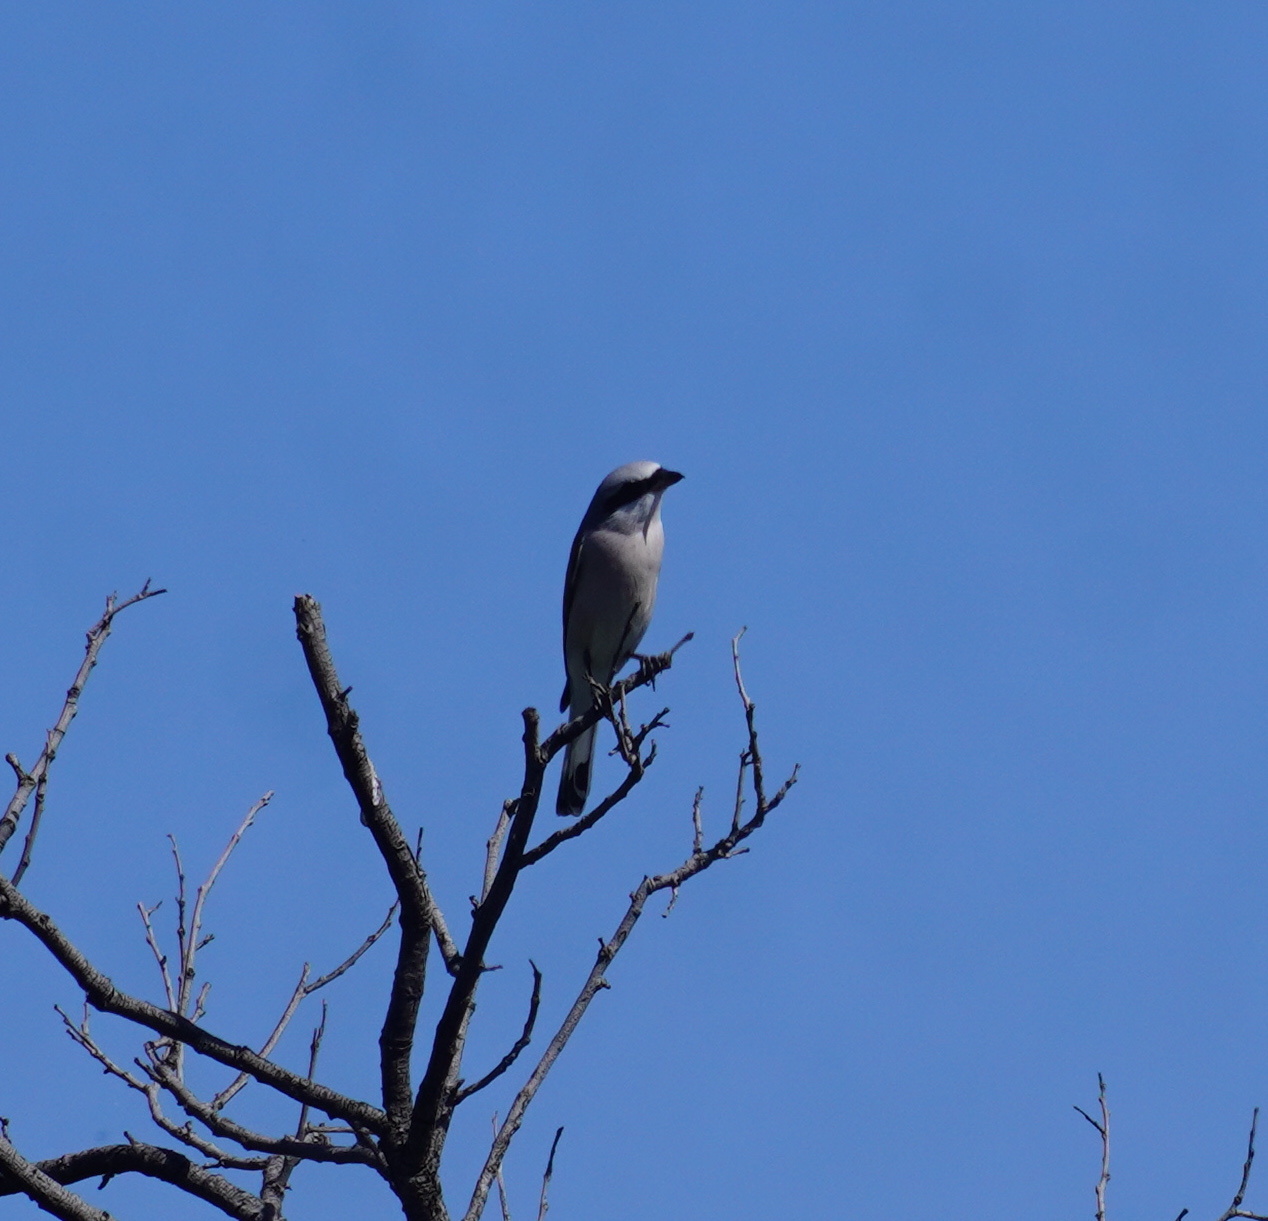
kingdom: Animalia
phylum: Chordata
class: Aves
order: Passeriformes
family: Laniidae
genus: Lanius
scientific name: Lanius collurio
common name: Red-backed shrike
